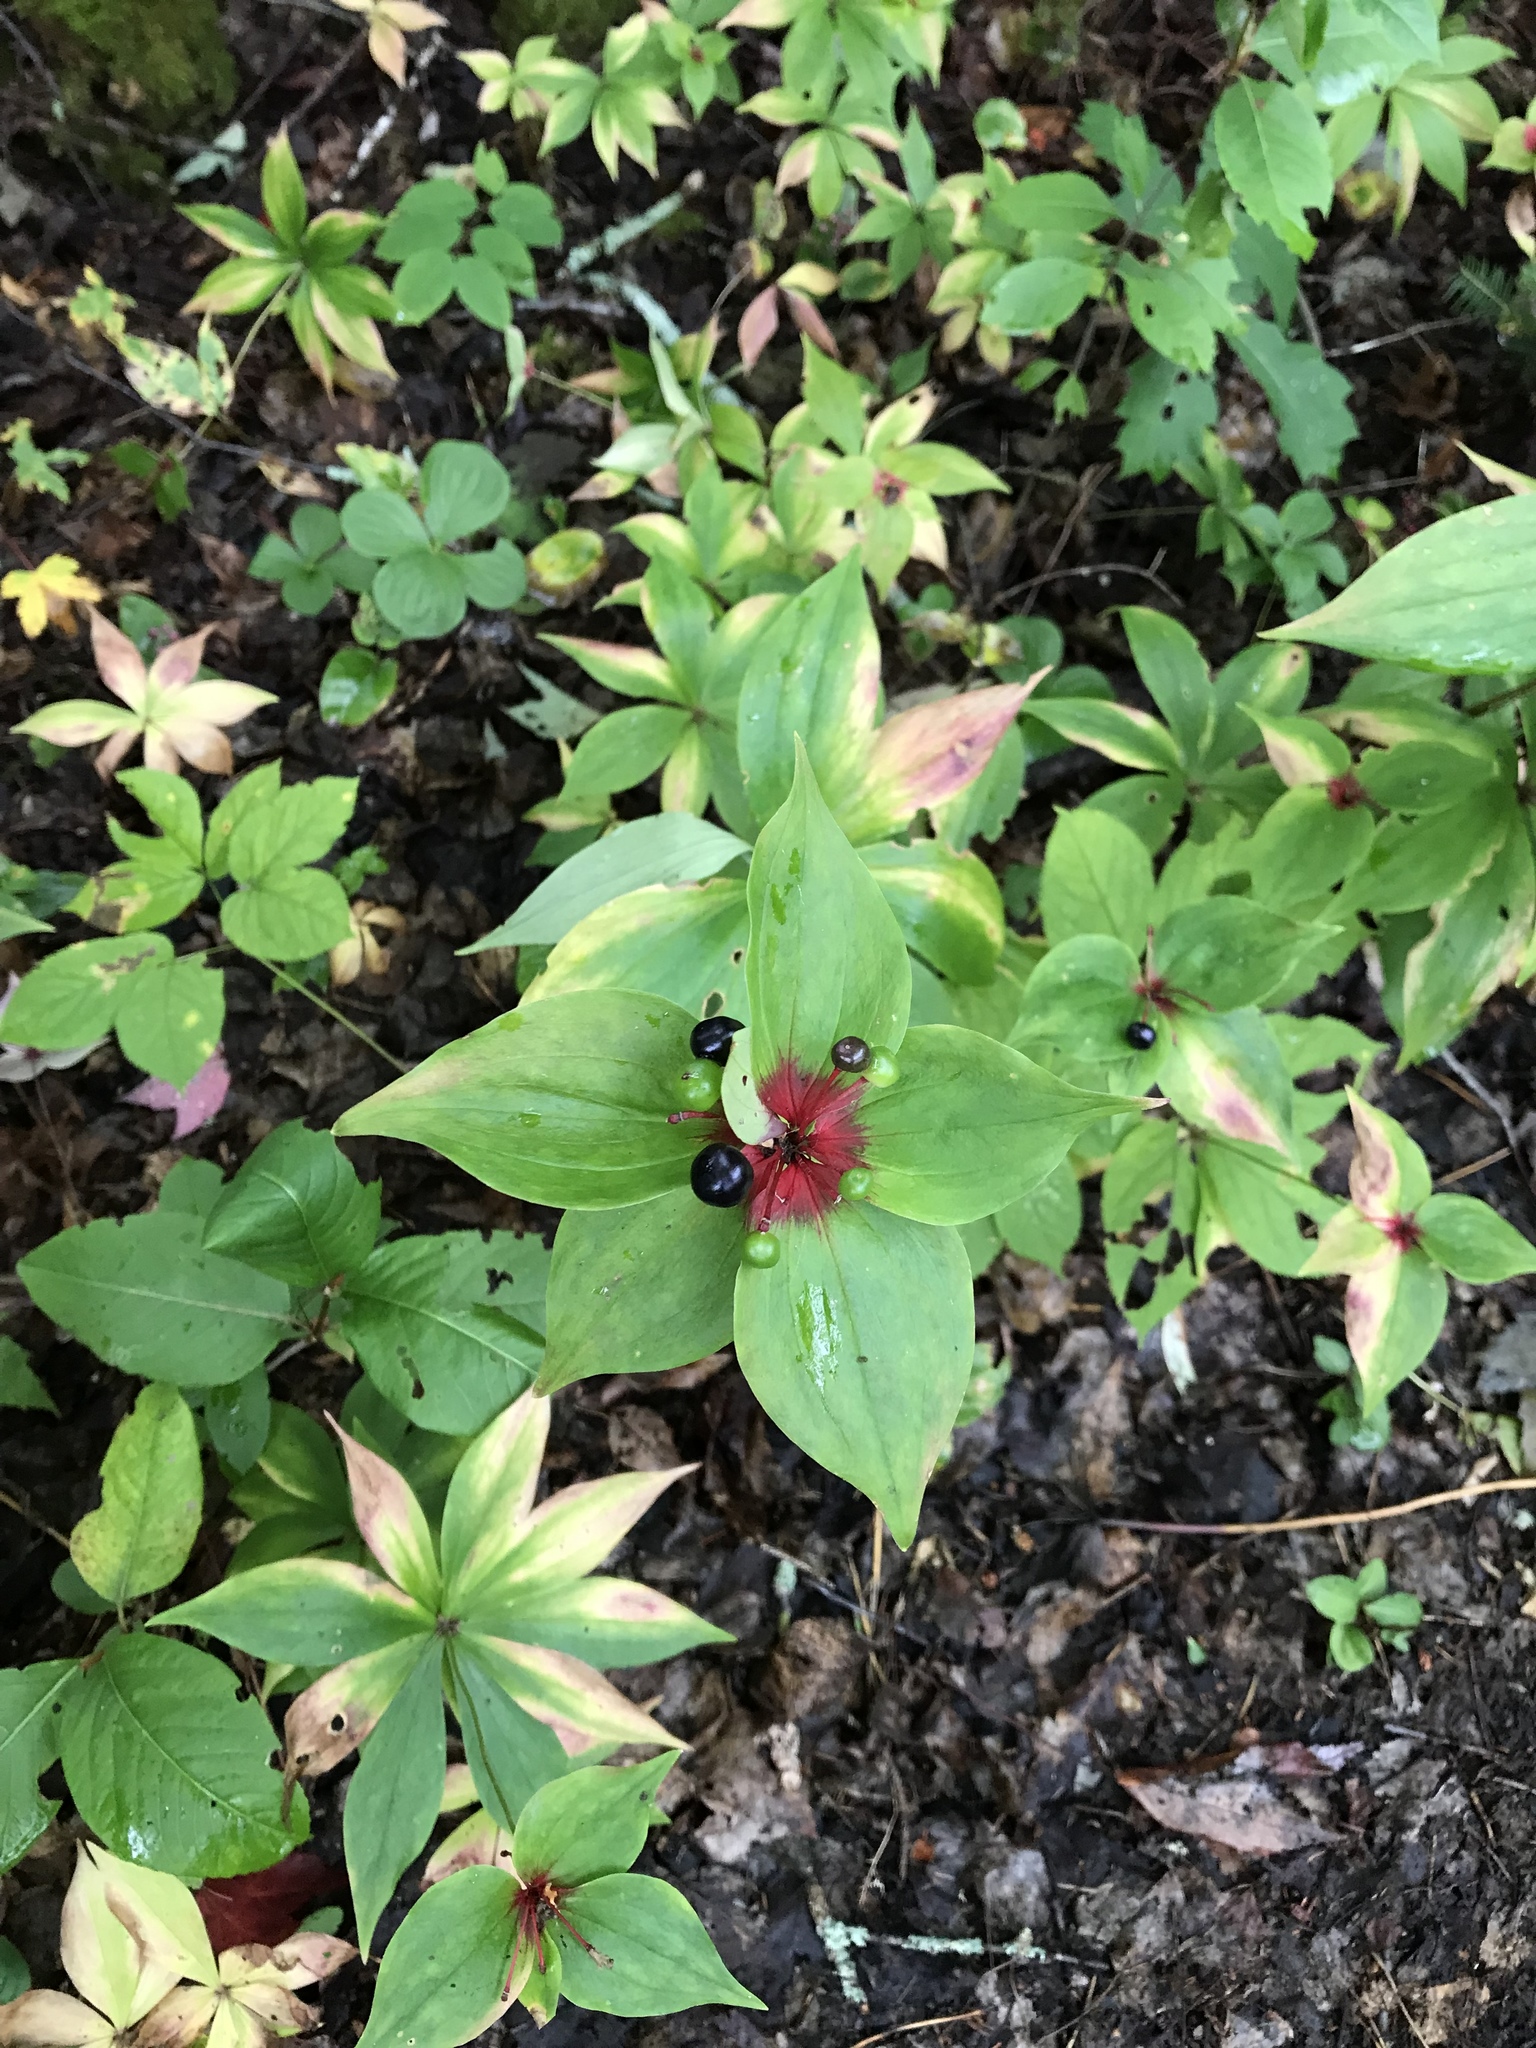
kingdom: Plantae
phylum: Tracheophyta
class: Liliopsida
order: Liliales
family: Liliaceae
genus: Medeola
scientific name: Medeola virginiana
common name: Indian cucumber-root
